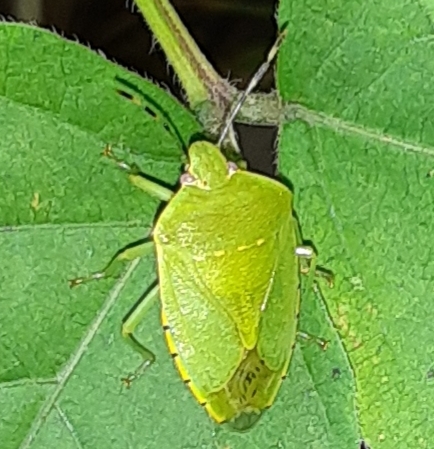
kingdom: Animalia
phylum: Arthropoda
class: Insecta
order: Hemiptera
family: Pentatomidae
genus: Chinavia
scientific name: Chinavia hilaris
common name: Green stink bug
